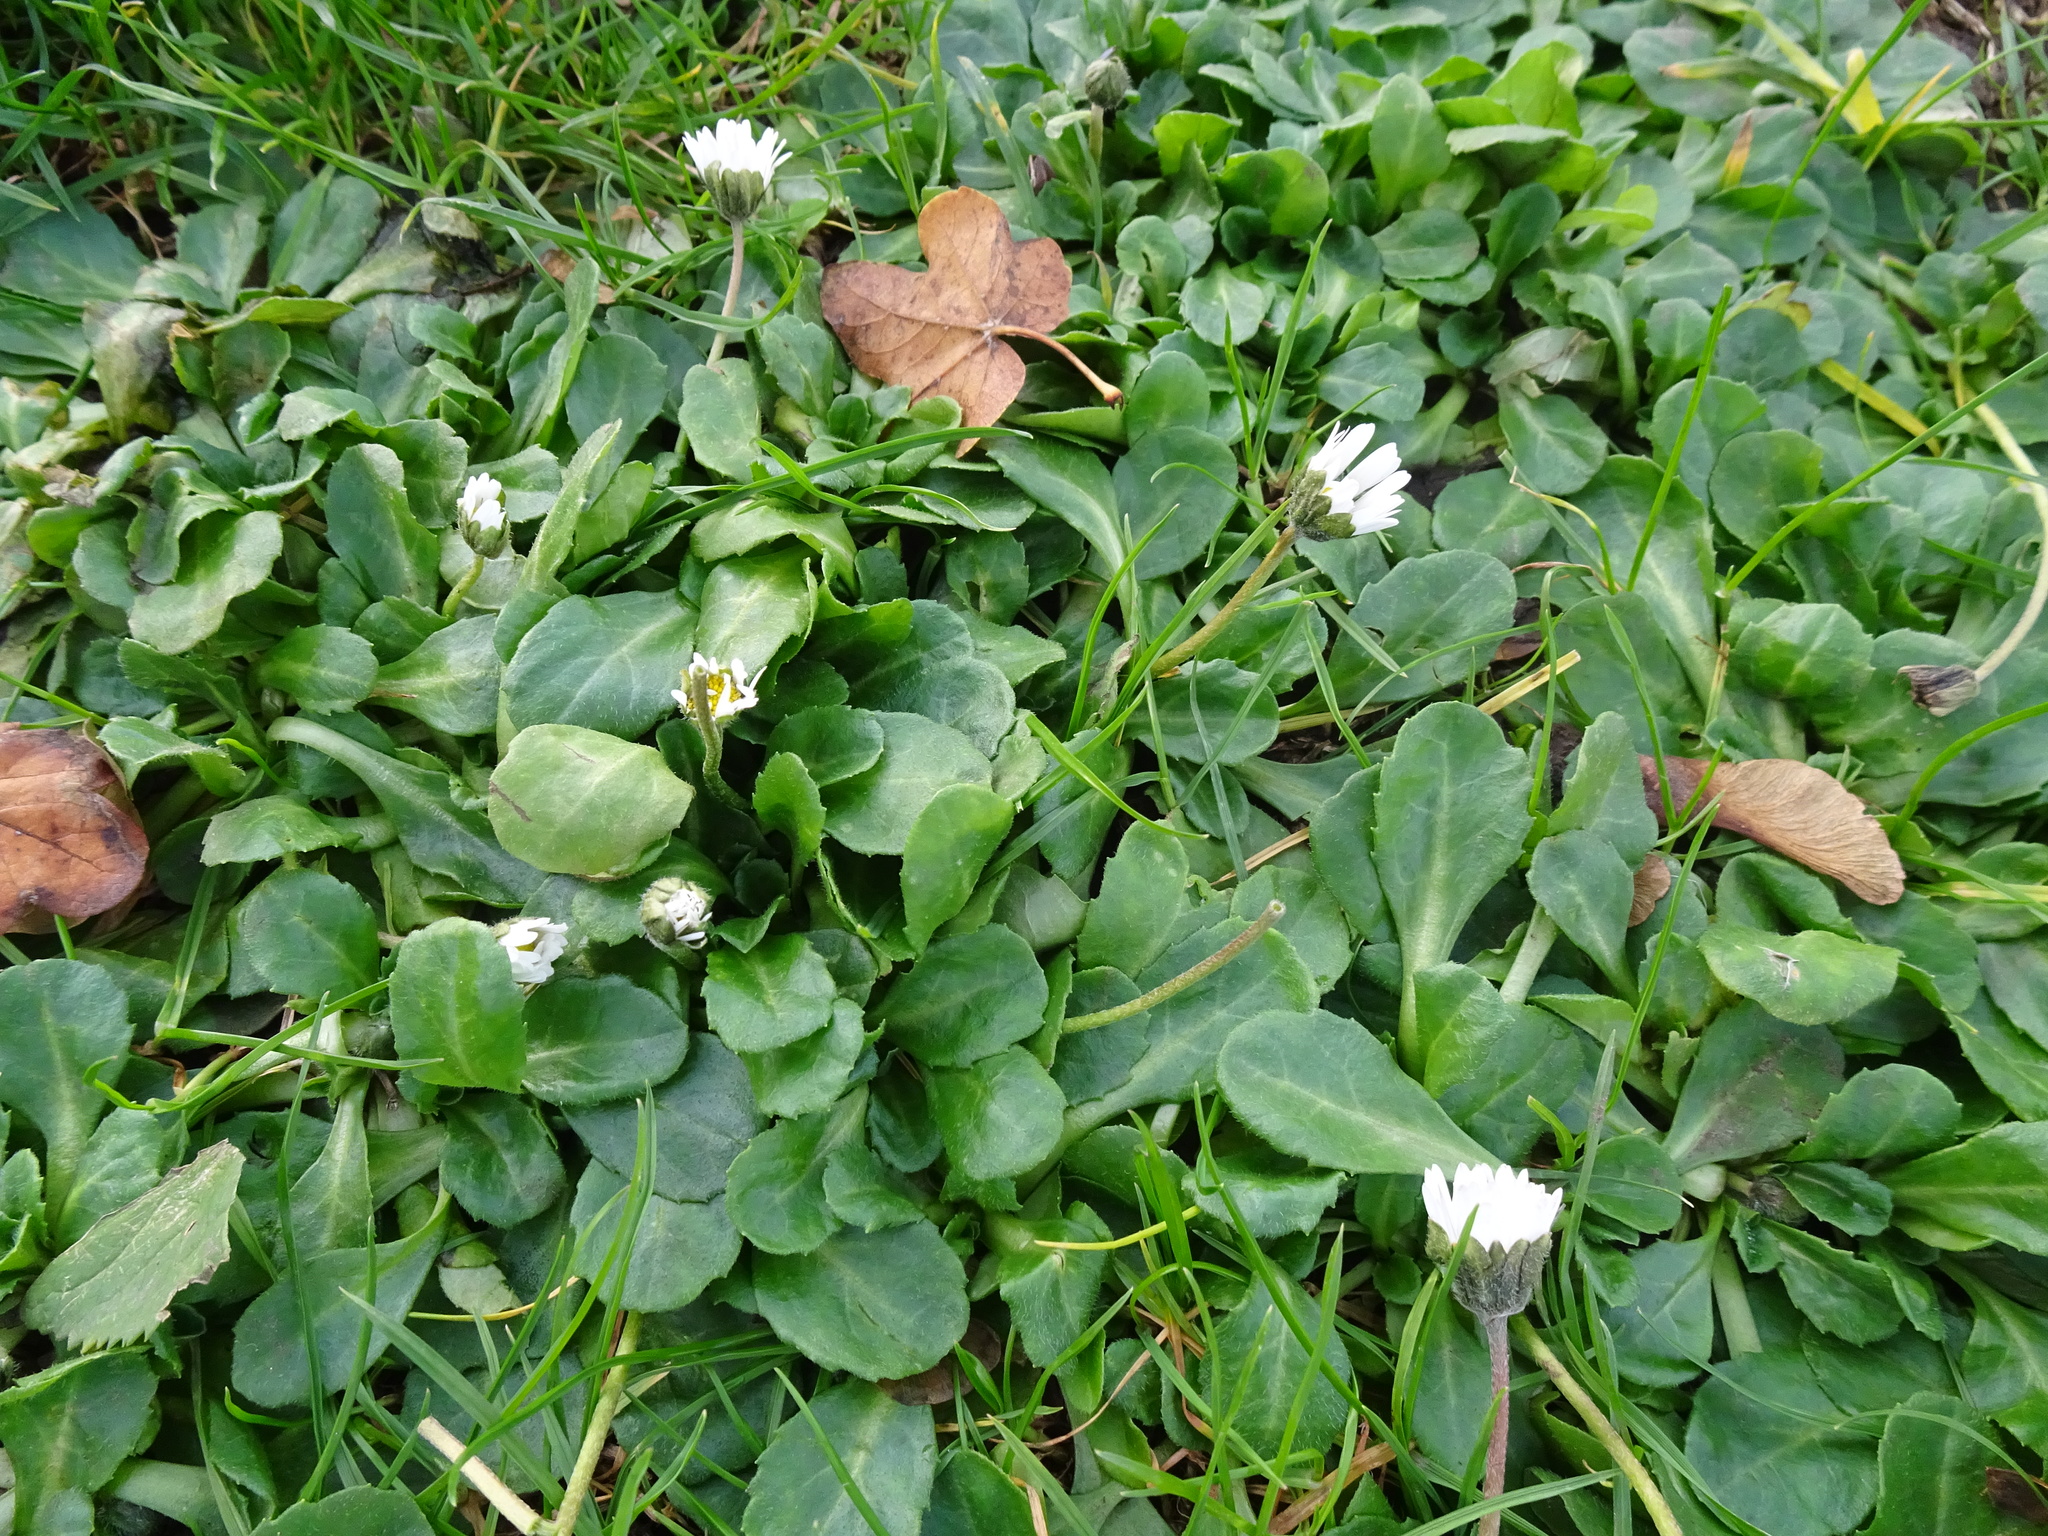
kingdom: Plantae
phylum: Tracheophyta
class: Magnoliopsida
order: Asterales
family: Asteraceae
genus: Bellis
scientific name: Bellis perennis
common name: Lawndaisy
